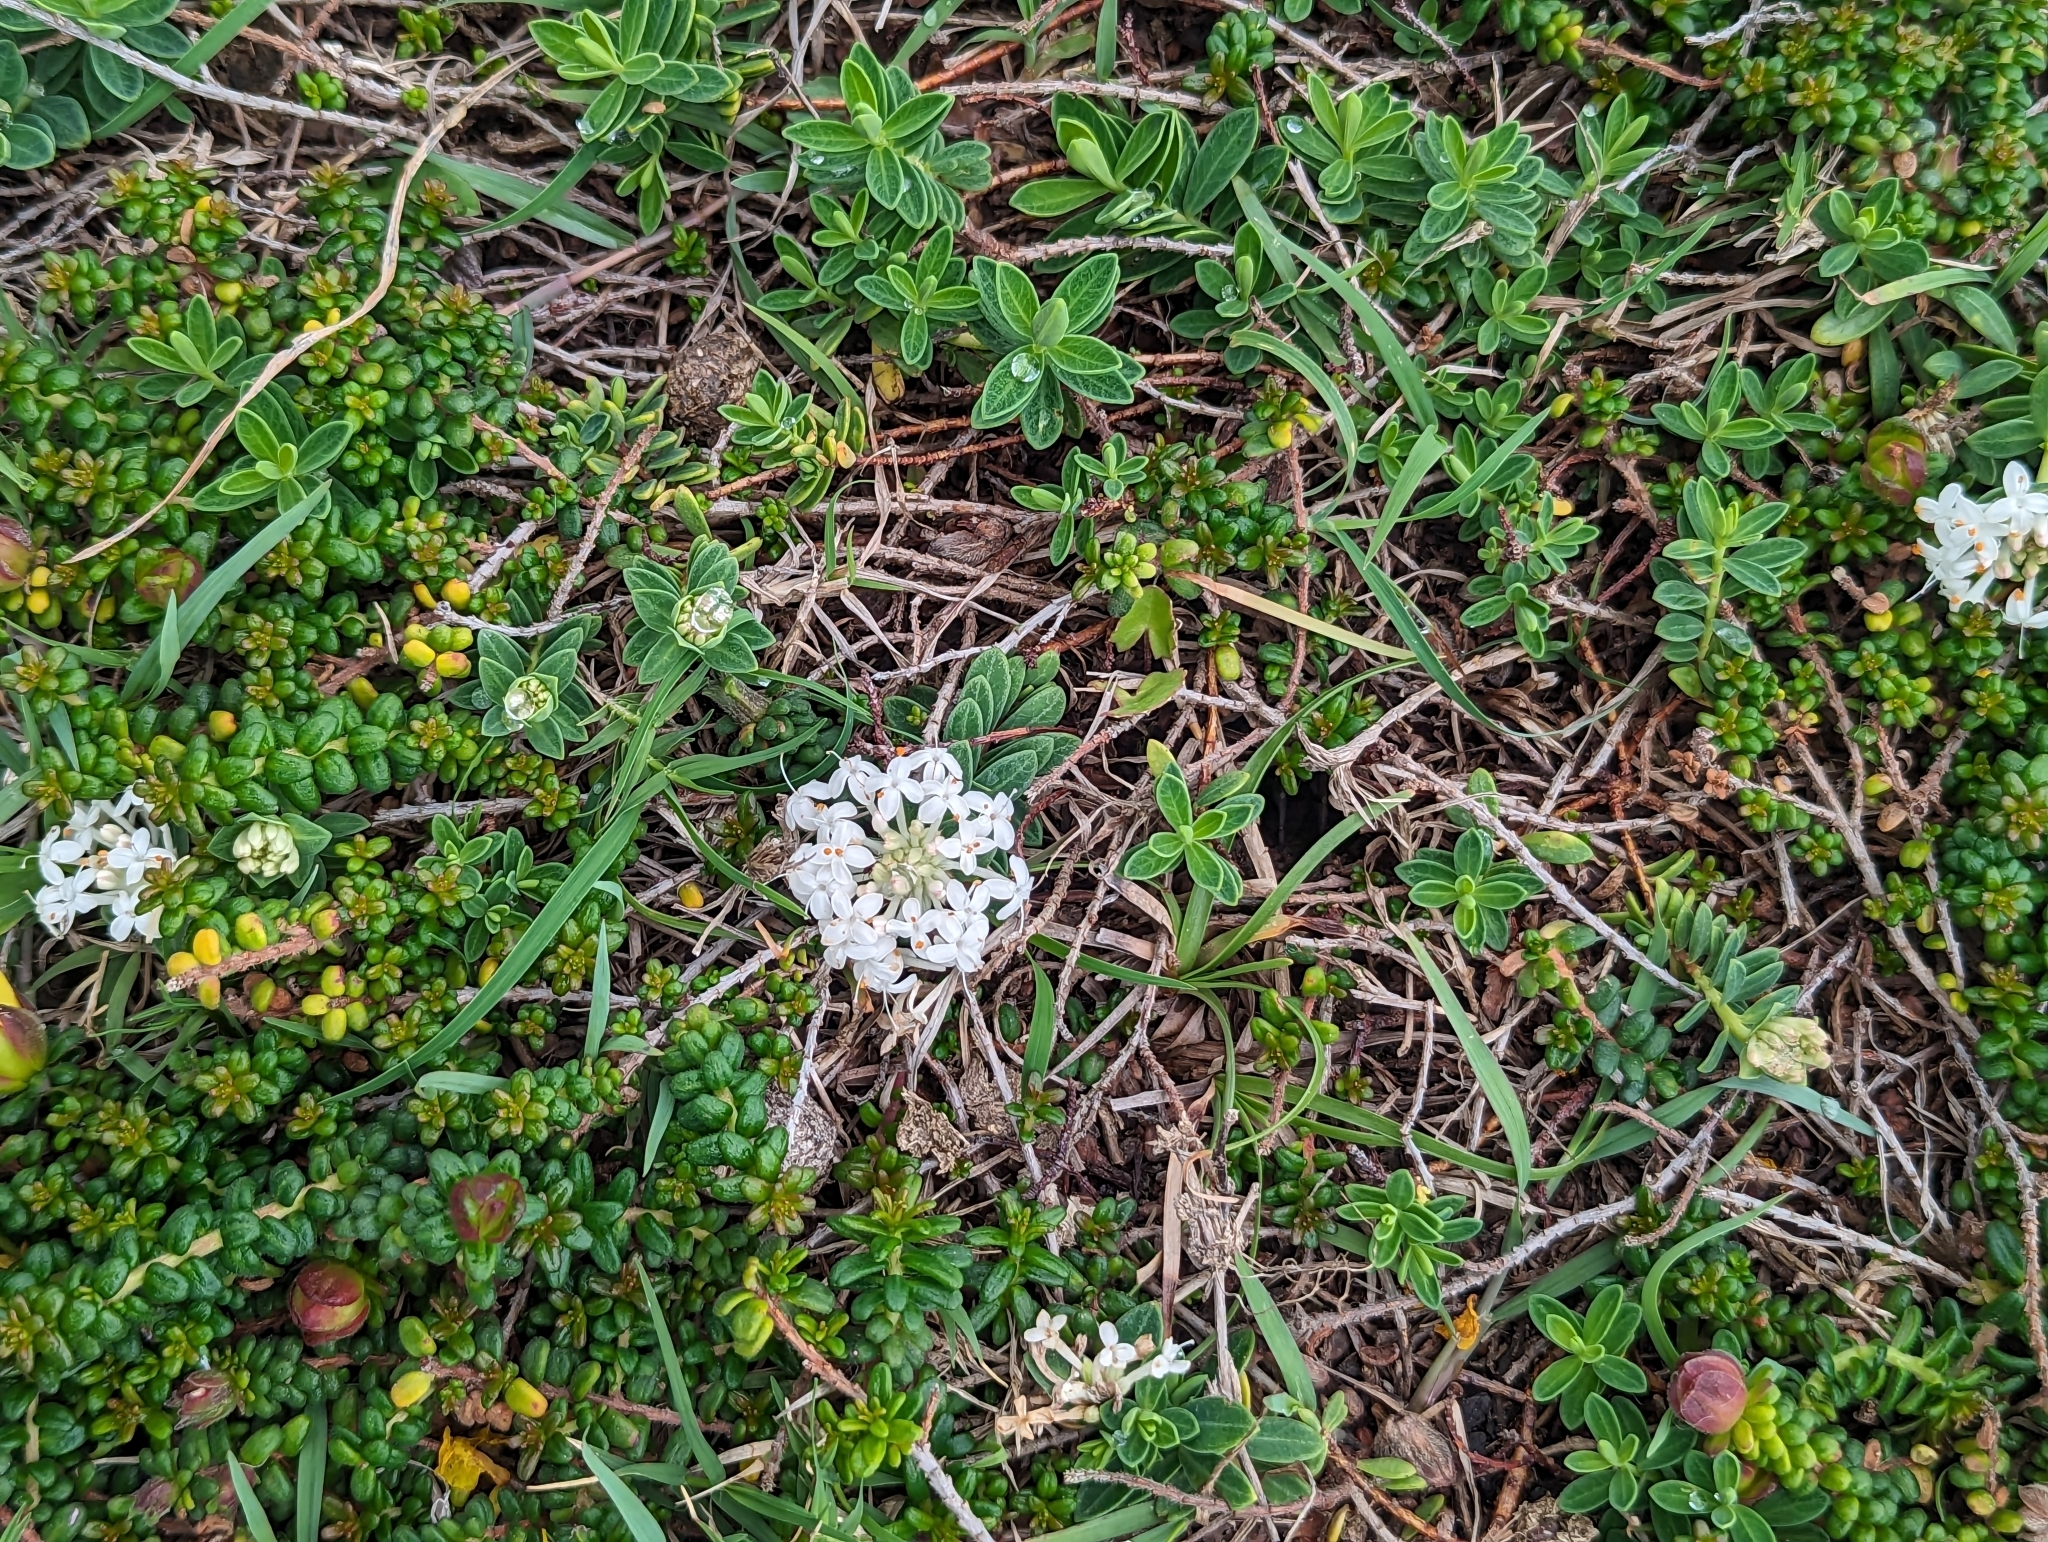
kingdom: Plantae
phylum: Tracheophyta
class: Magnoliopsida
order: Malvales
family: Thymelaeaceae
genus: Pimelea
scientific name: Pimelea linifolia
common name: Queen-of-the-bush
